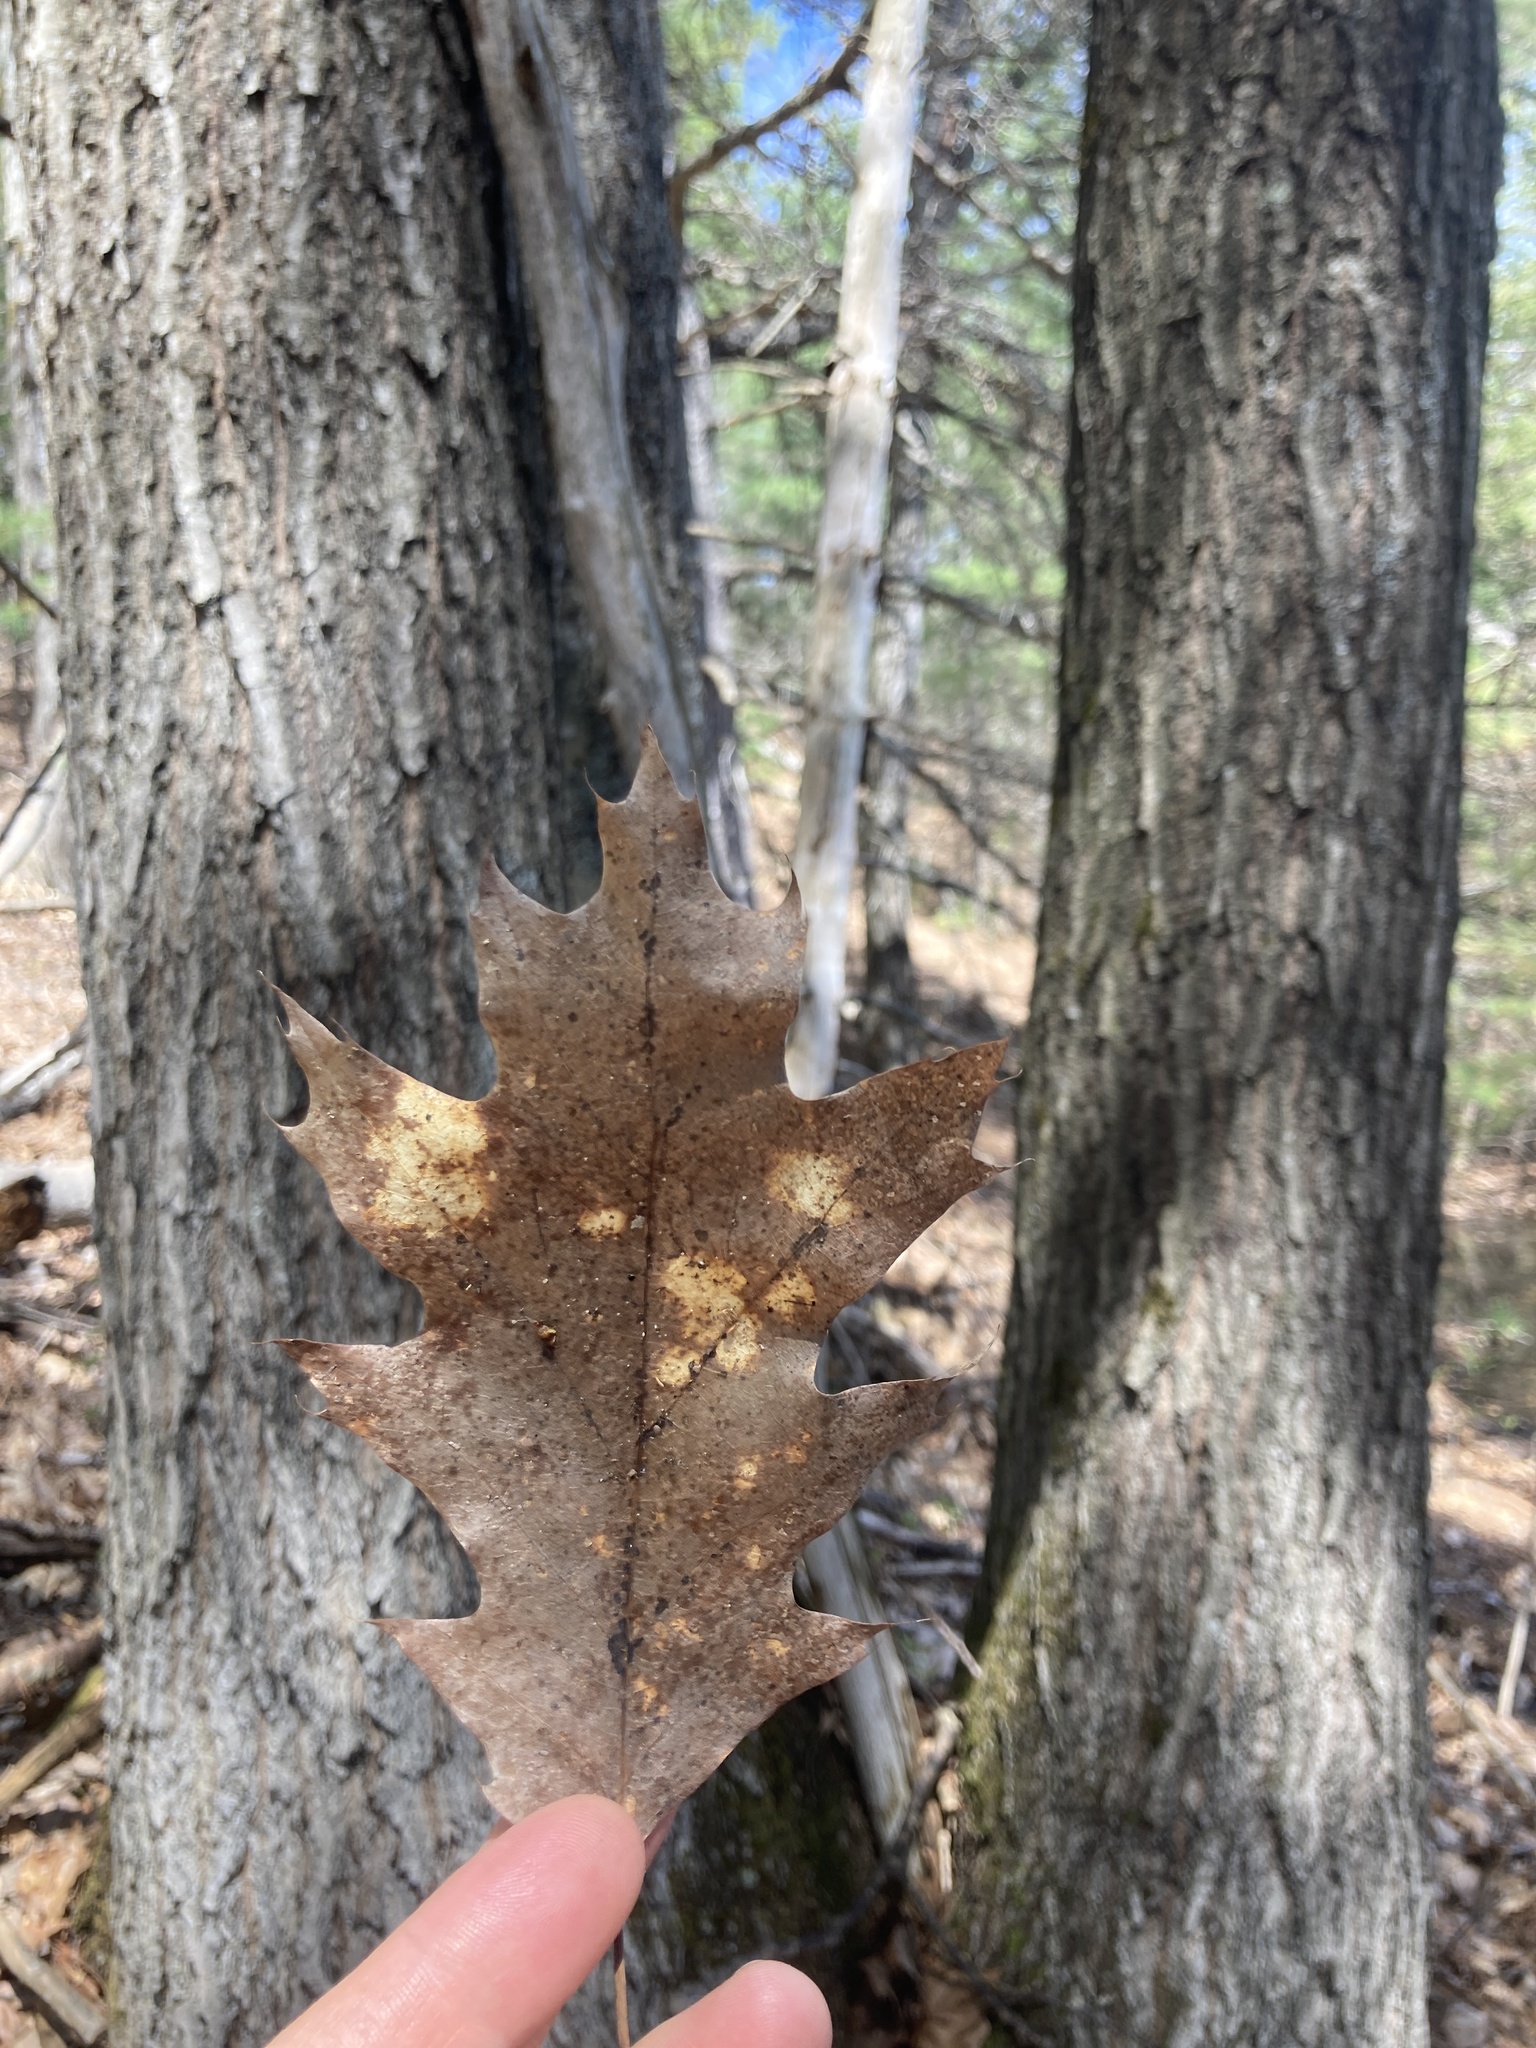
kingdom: Plantae
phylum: Tracheophyta
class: Magnoliopsida
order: Fagales
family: Fagaceae
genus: Quercus
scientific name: Quercus rubra
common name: Red oak
